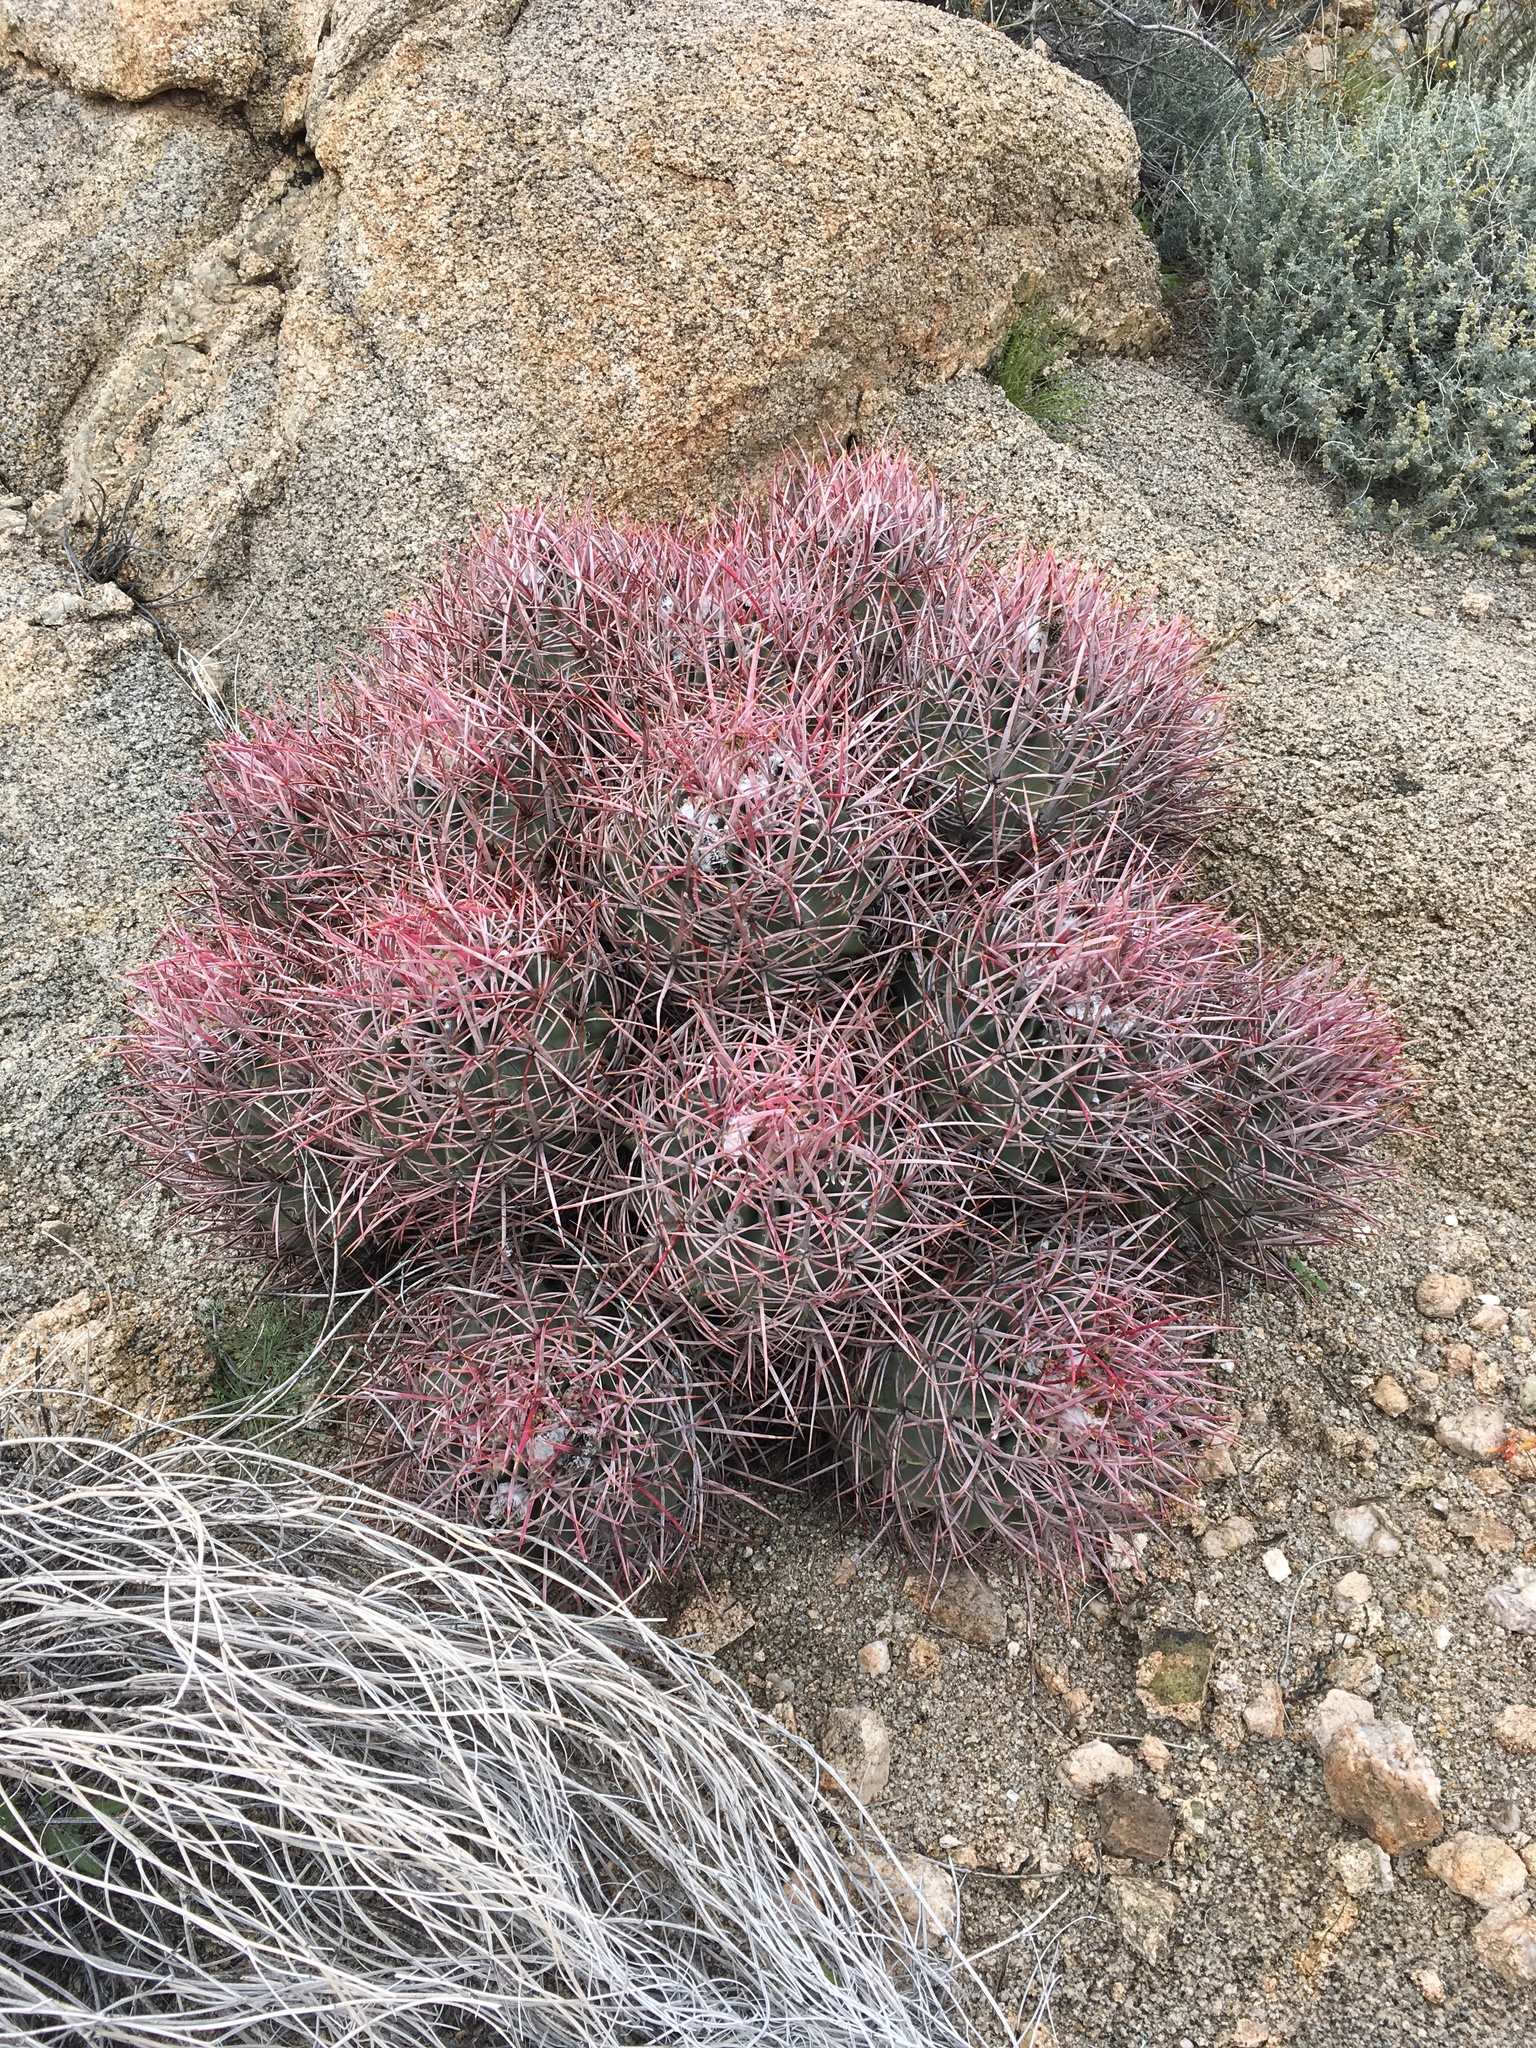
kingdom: Plantae
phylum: Tracheophyta
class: Magnoliopsida
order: Caryophyllales
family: Cactaceae
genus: Echinocactus
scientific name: Echinocactus polycephalus
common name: Cottontop cactus
